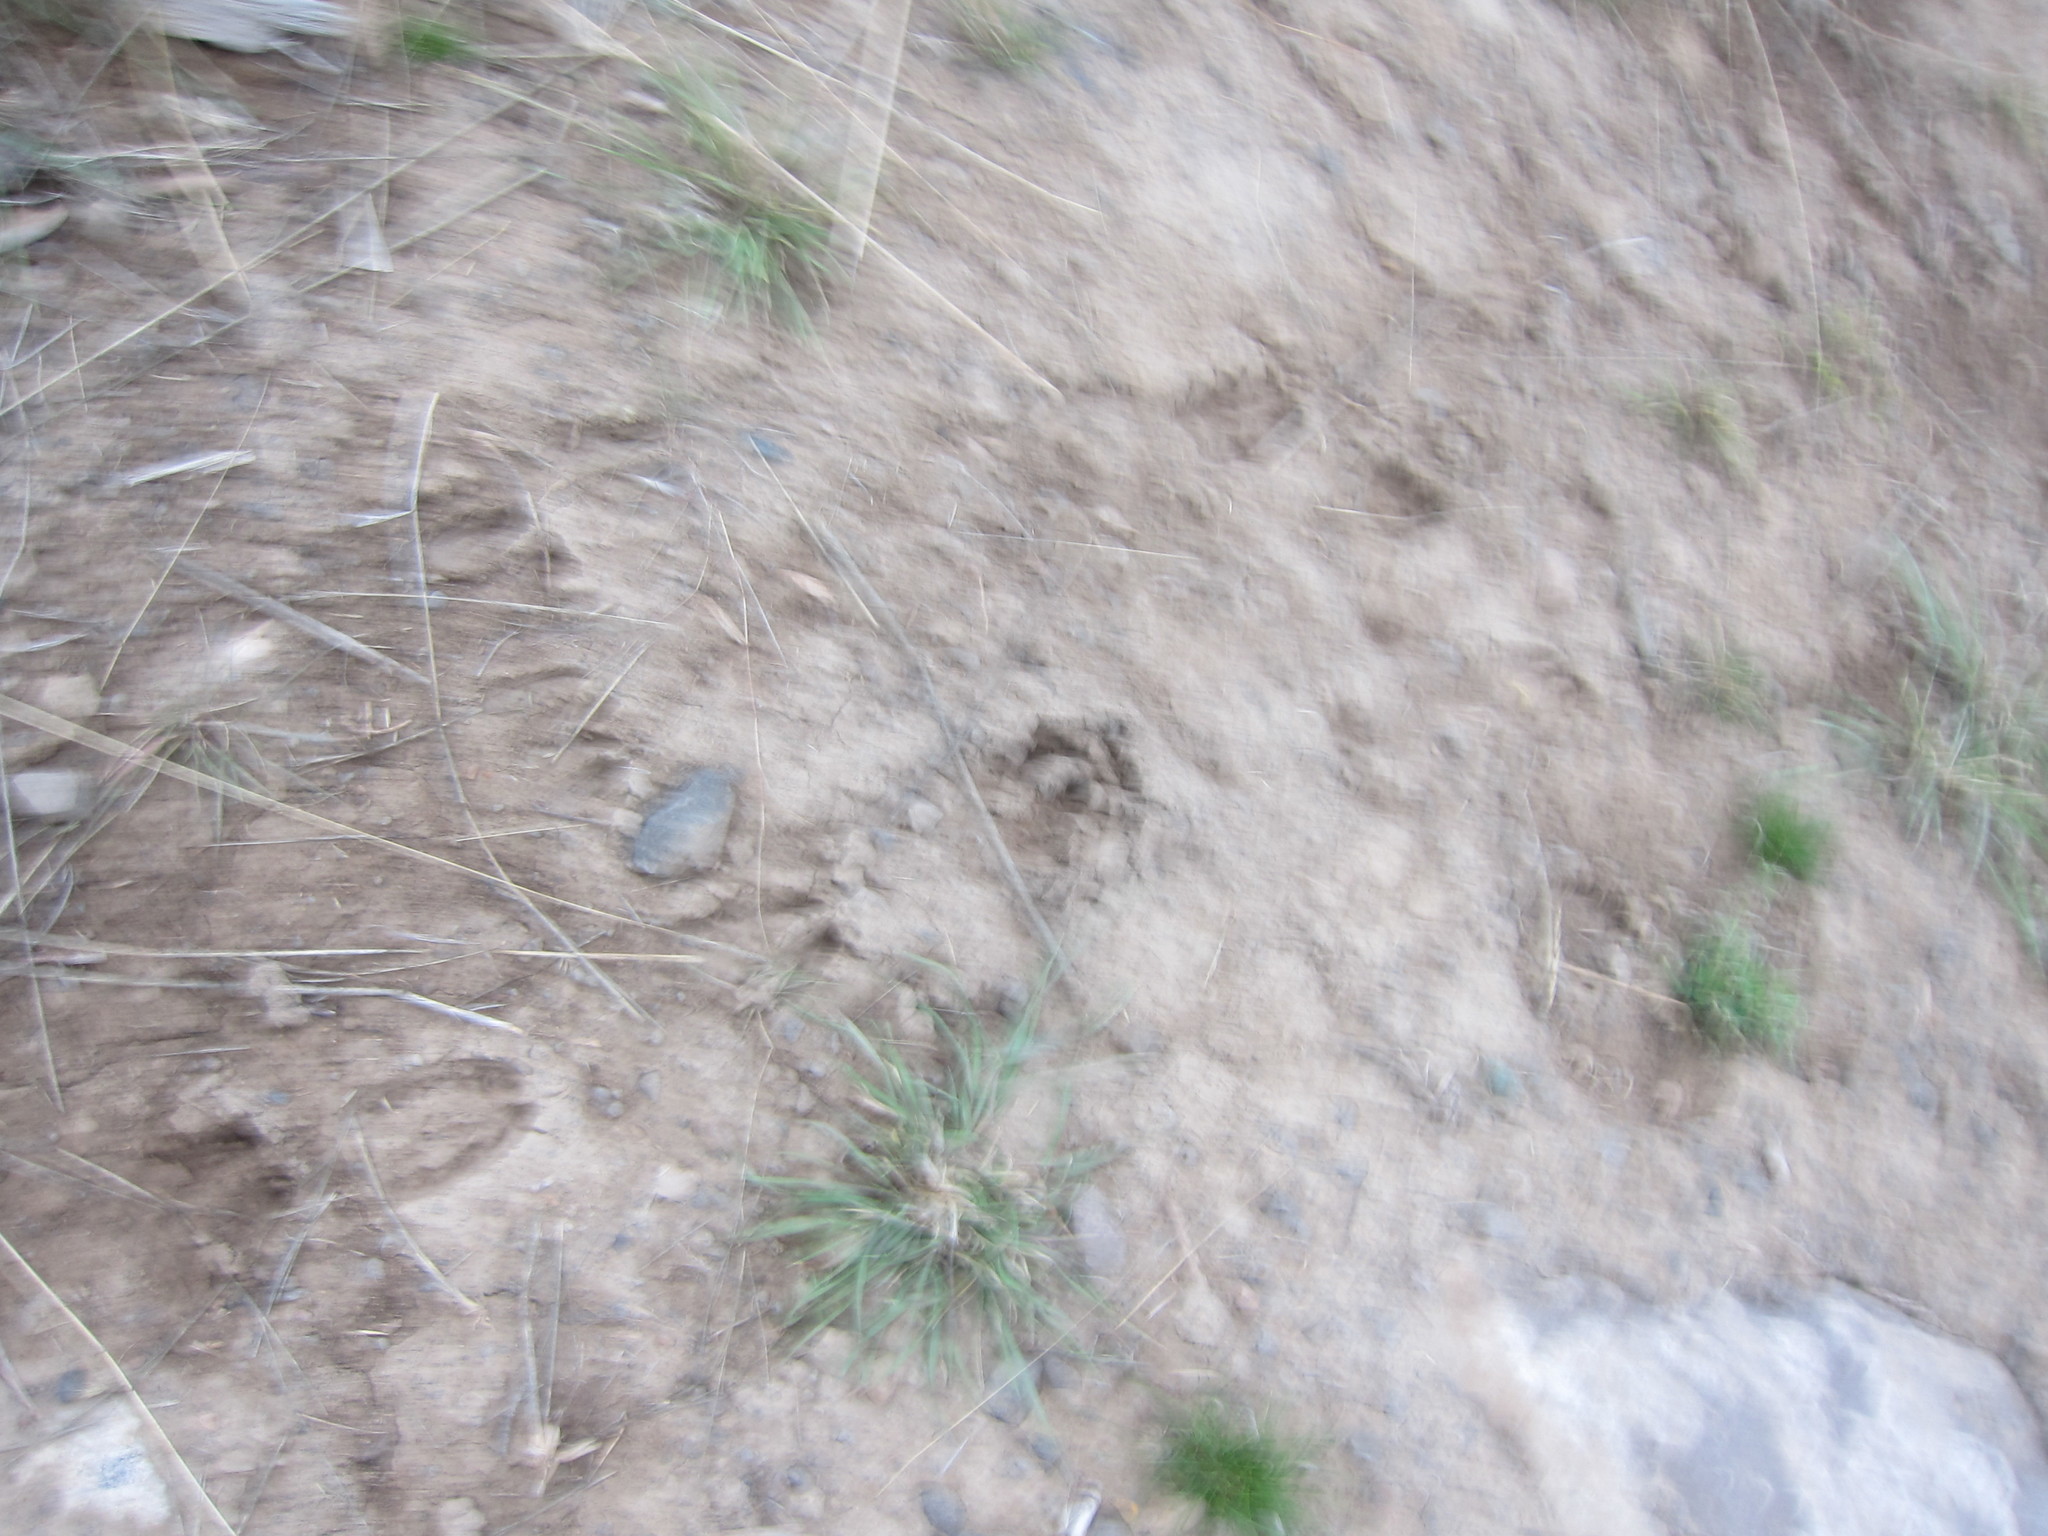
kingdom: Animalia
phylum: Chordata
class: Mammalia
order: Artiodactyla
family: Cervidae
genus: Alces
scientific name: Alces alces
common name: Moose
